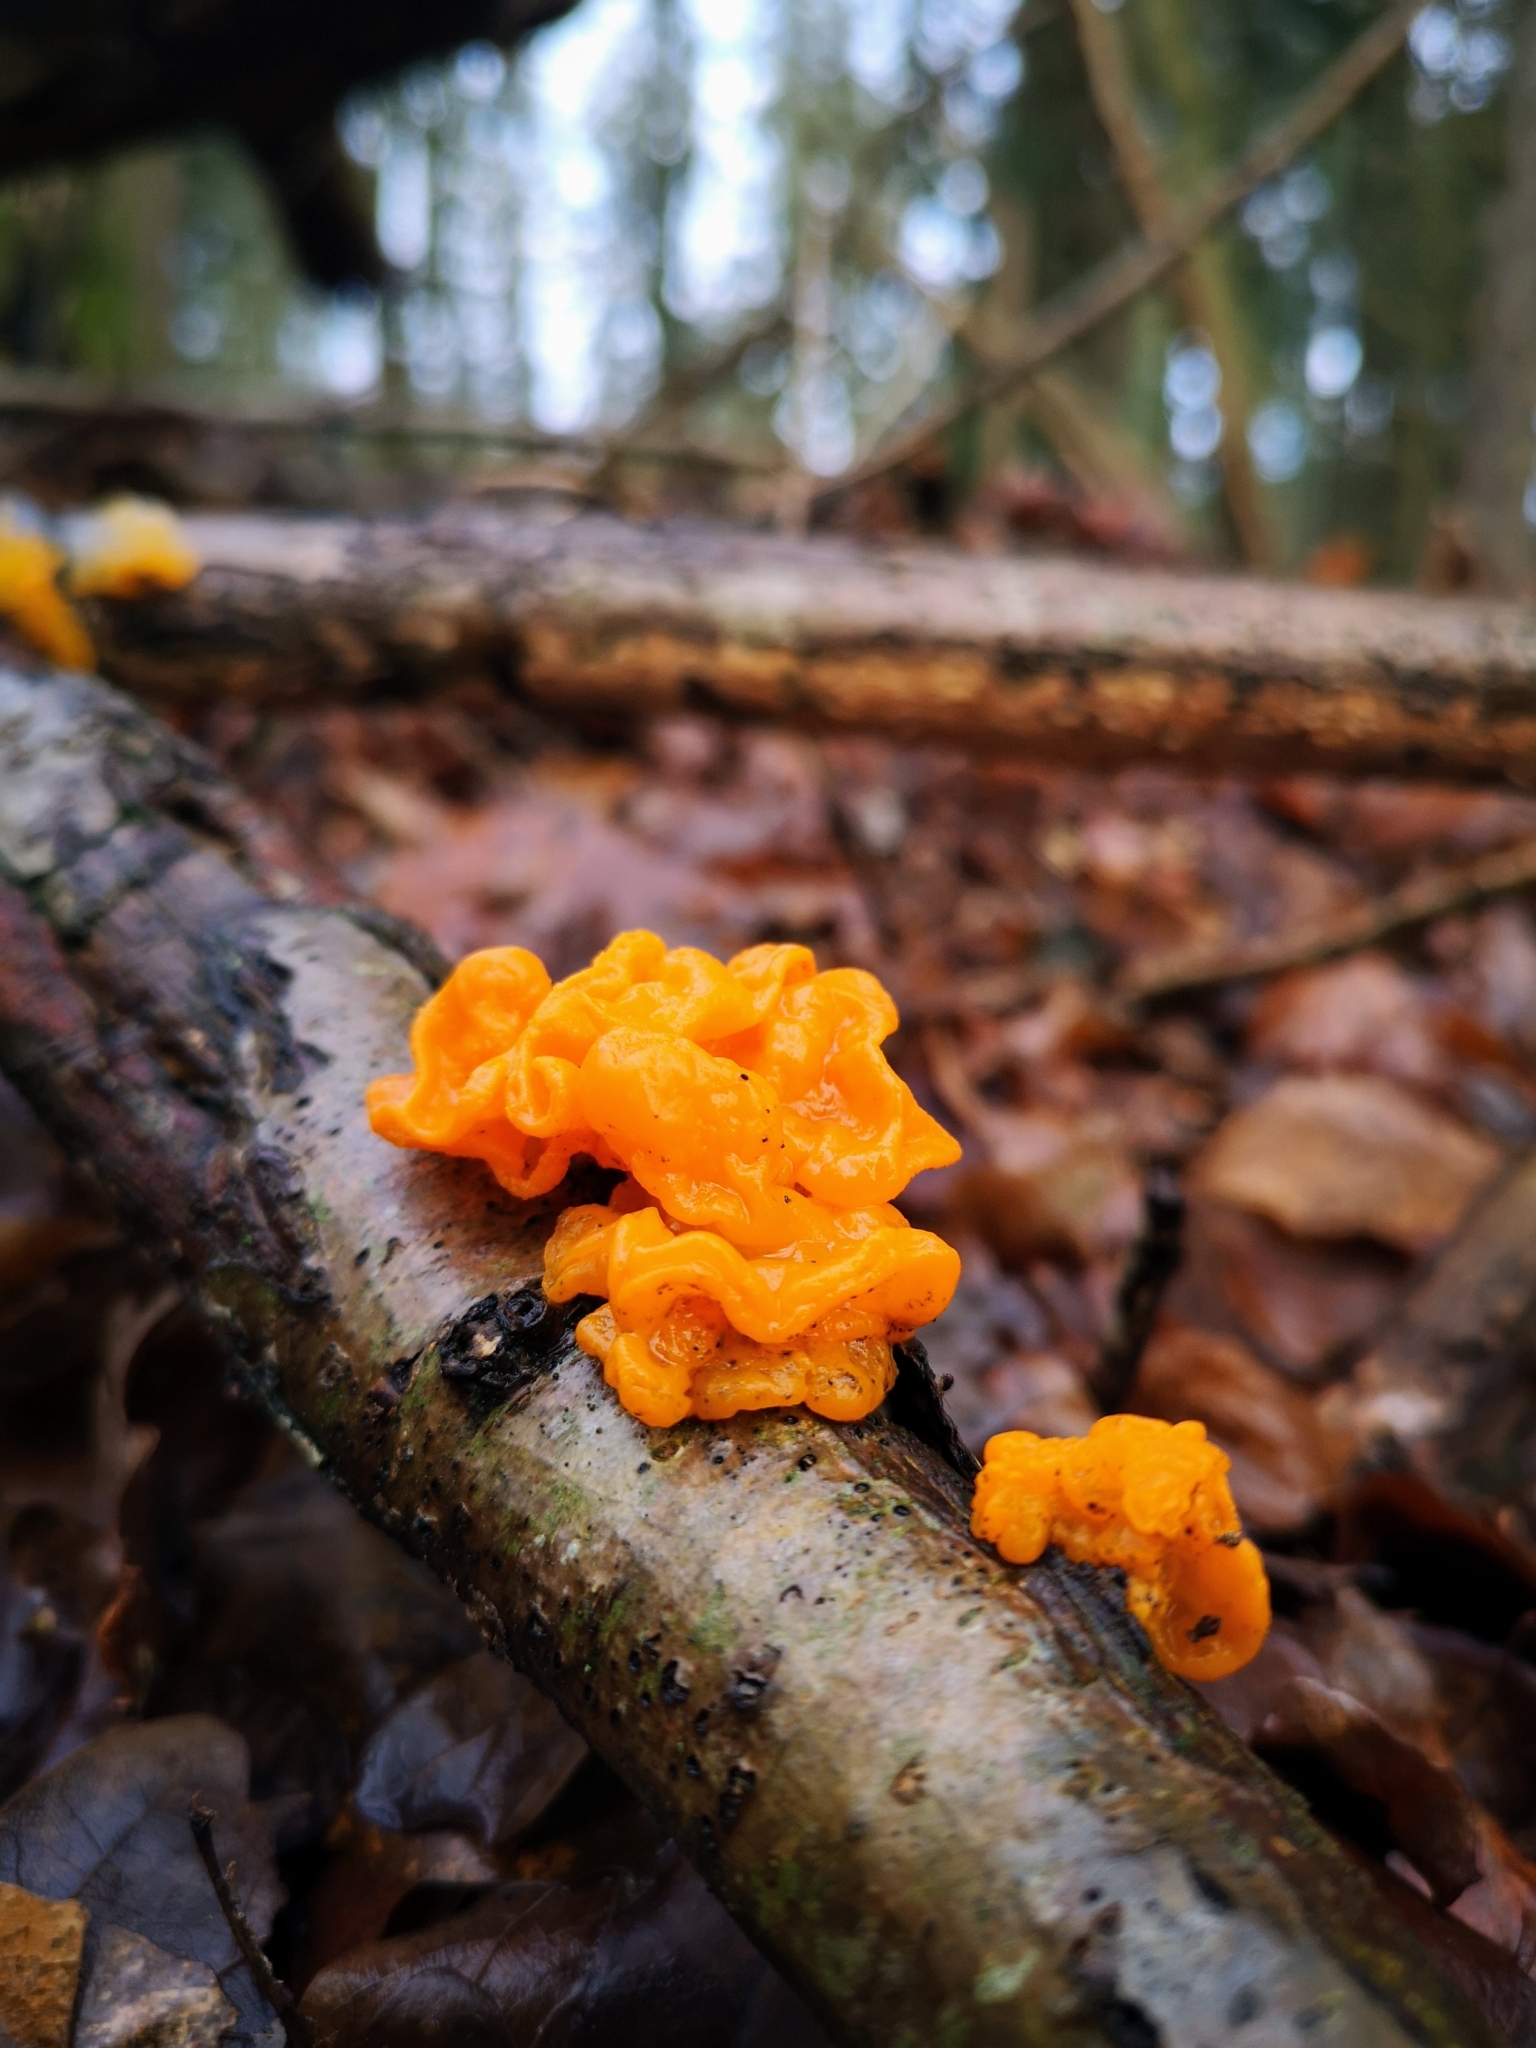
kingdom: Fungi
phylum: Basidiomycota
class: Tremellomycetes
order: Tremellales
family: Tremellaceae
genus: Tremella
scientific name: Tremella mesenterica
